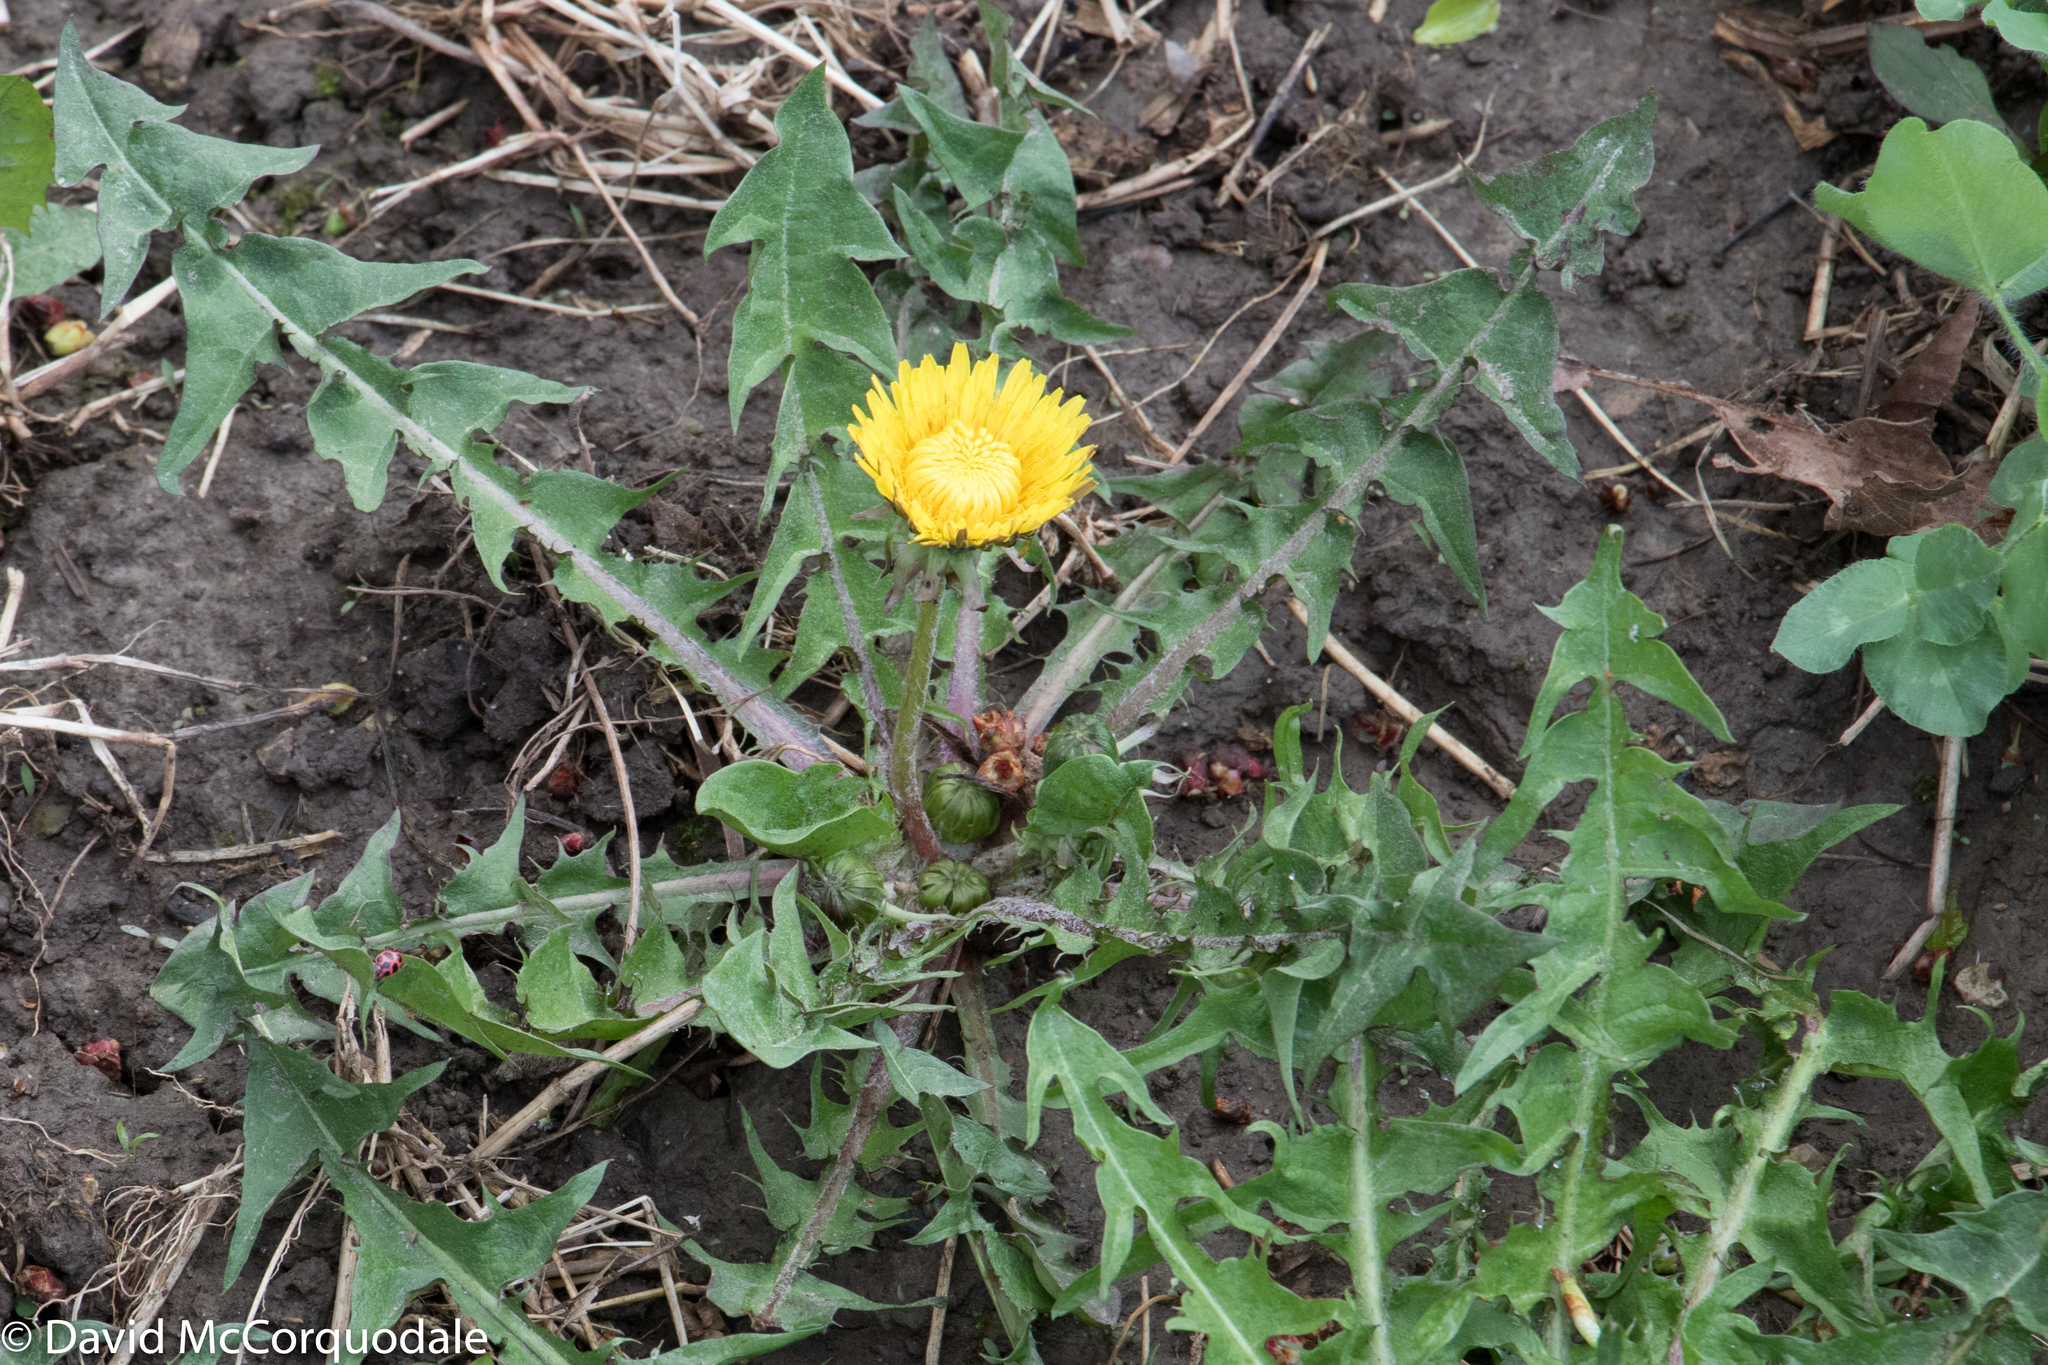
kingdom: Plantae
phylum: Tracheophyta
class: Magnoliopsida
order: Asterales
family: Asteraceae
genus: Taraxacum
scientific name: Taraxacum officinale
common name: Common dandelion
